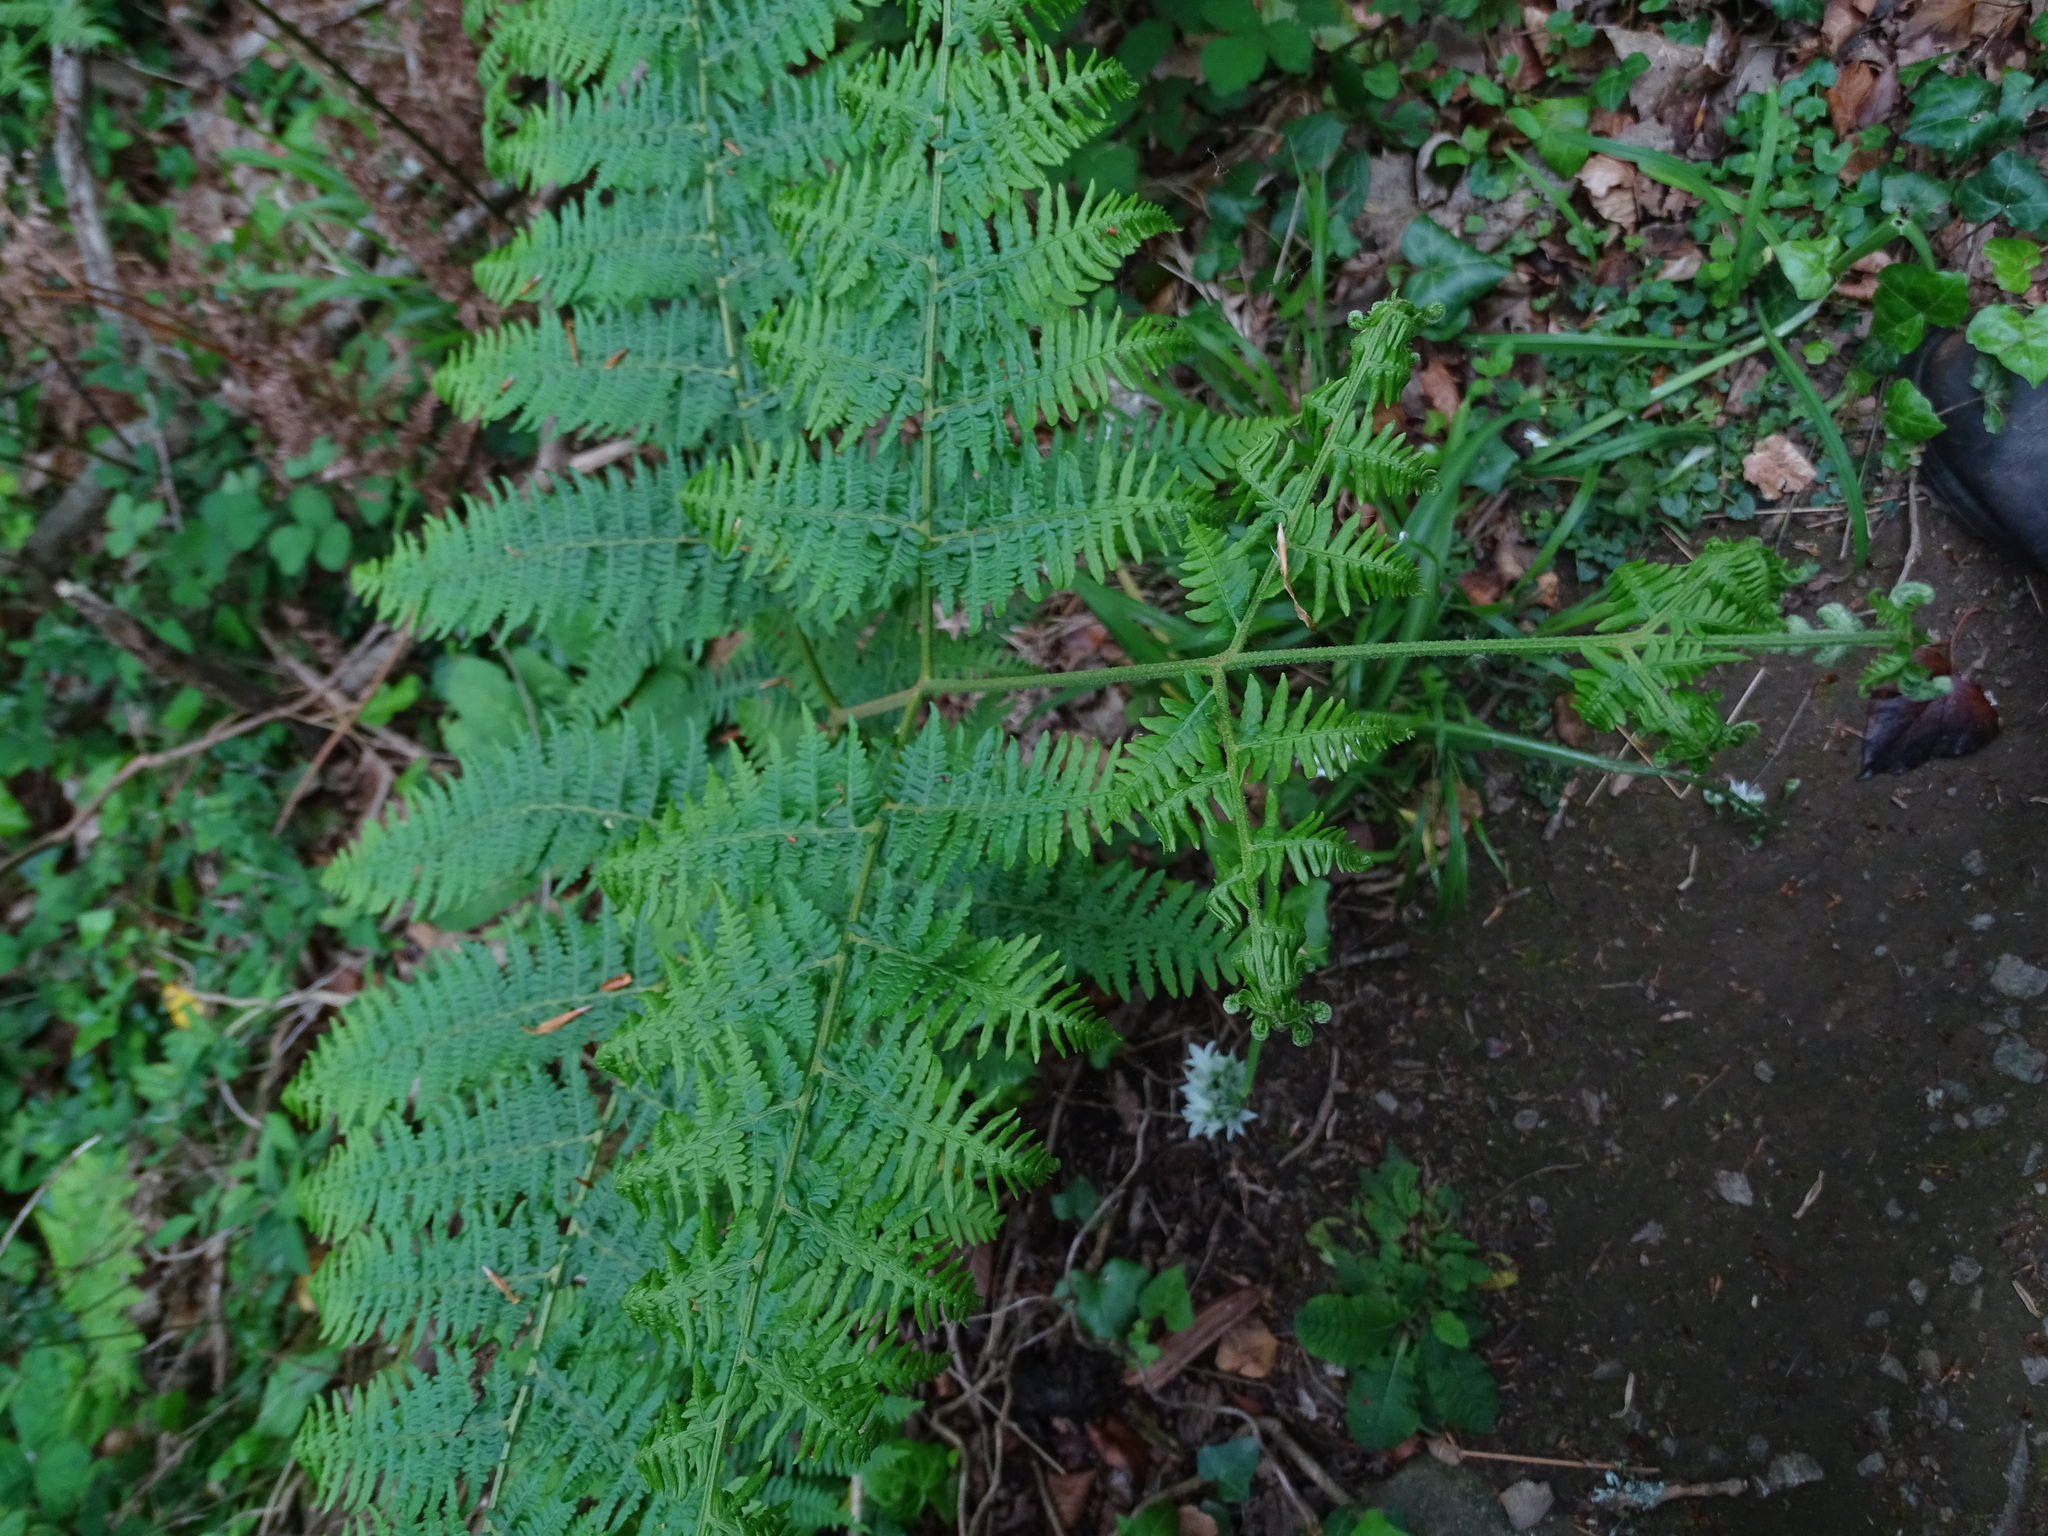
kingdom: Plantae
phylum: Tracheophyta
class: Polypodiopsida
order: Polypodiales
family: Dennstaedtiaceae
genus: Pteridium
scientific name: Pteridium aquilinum
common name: Bracken
